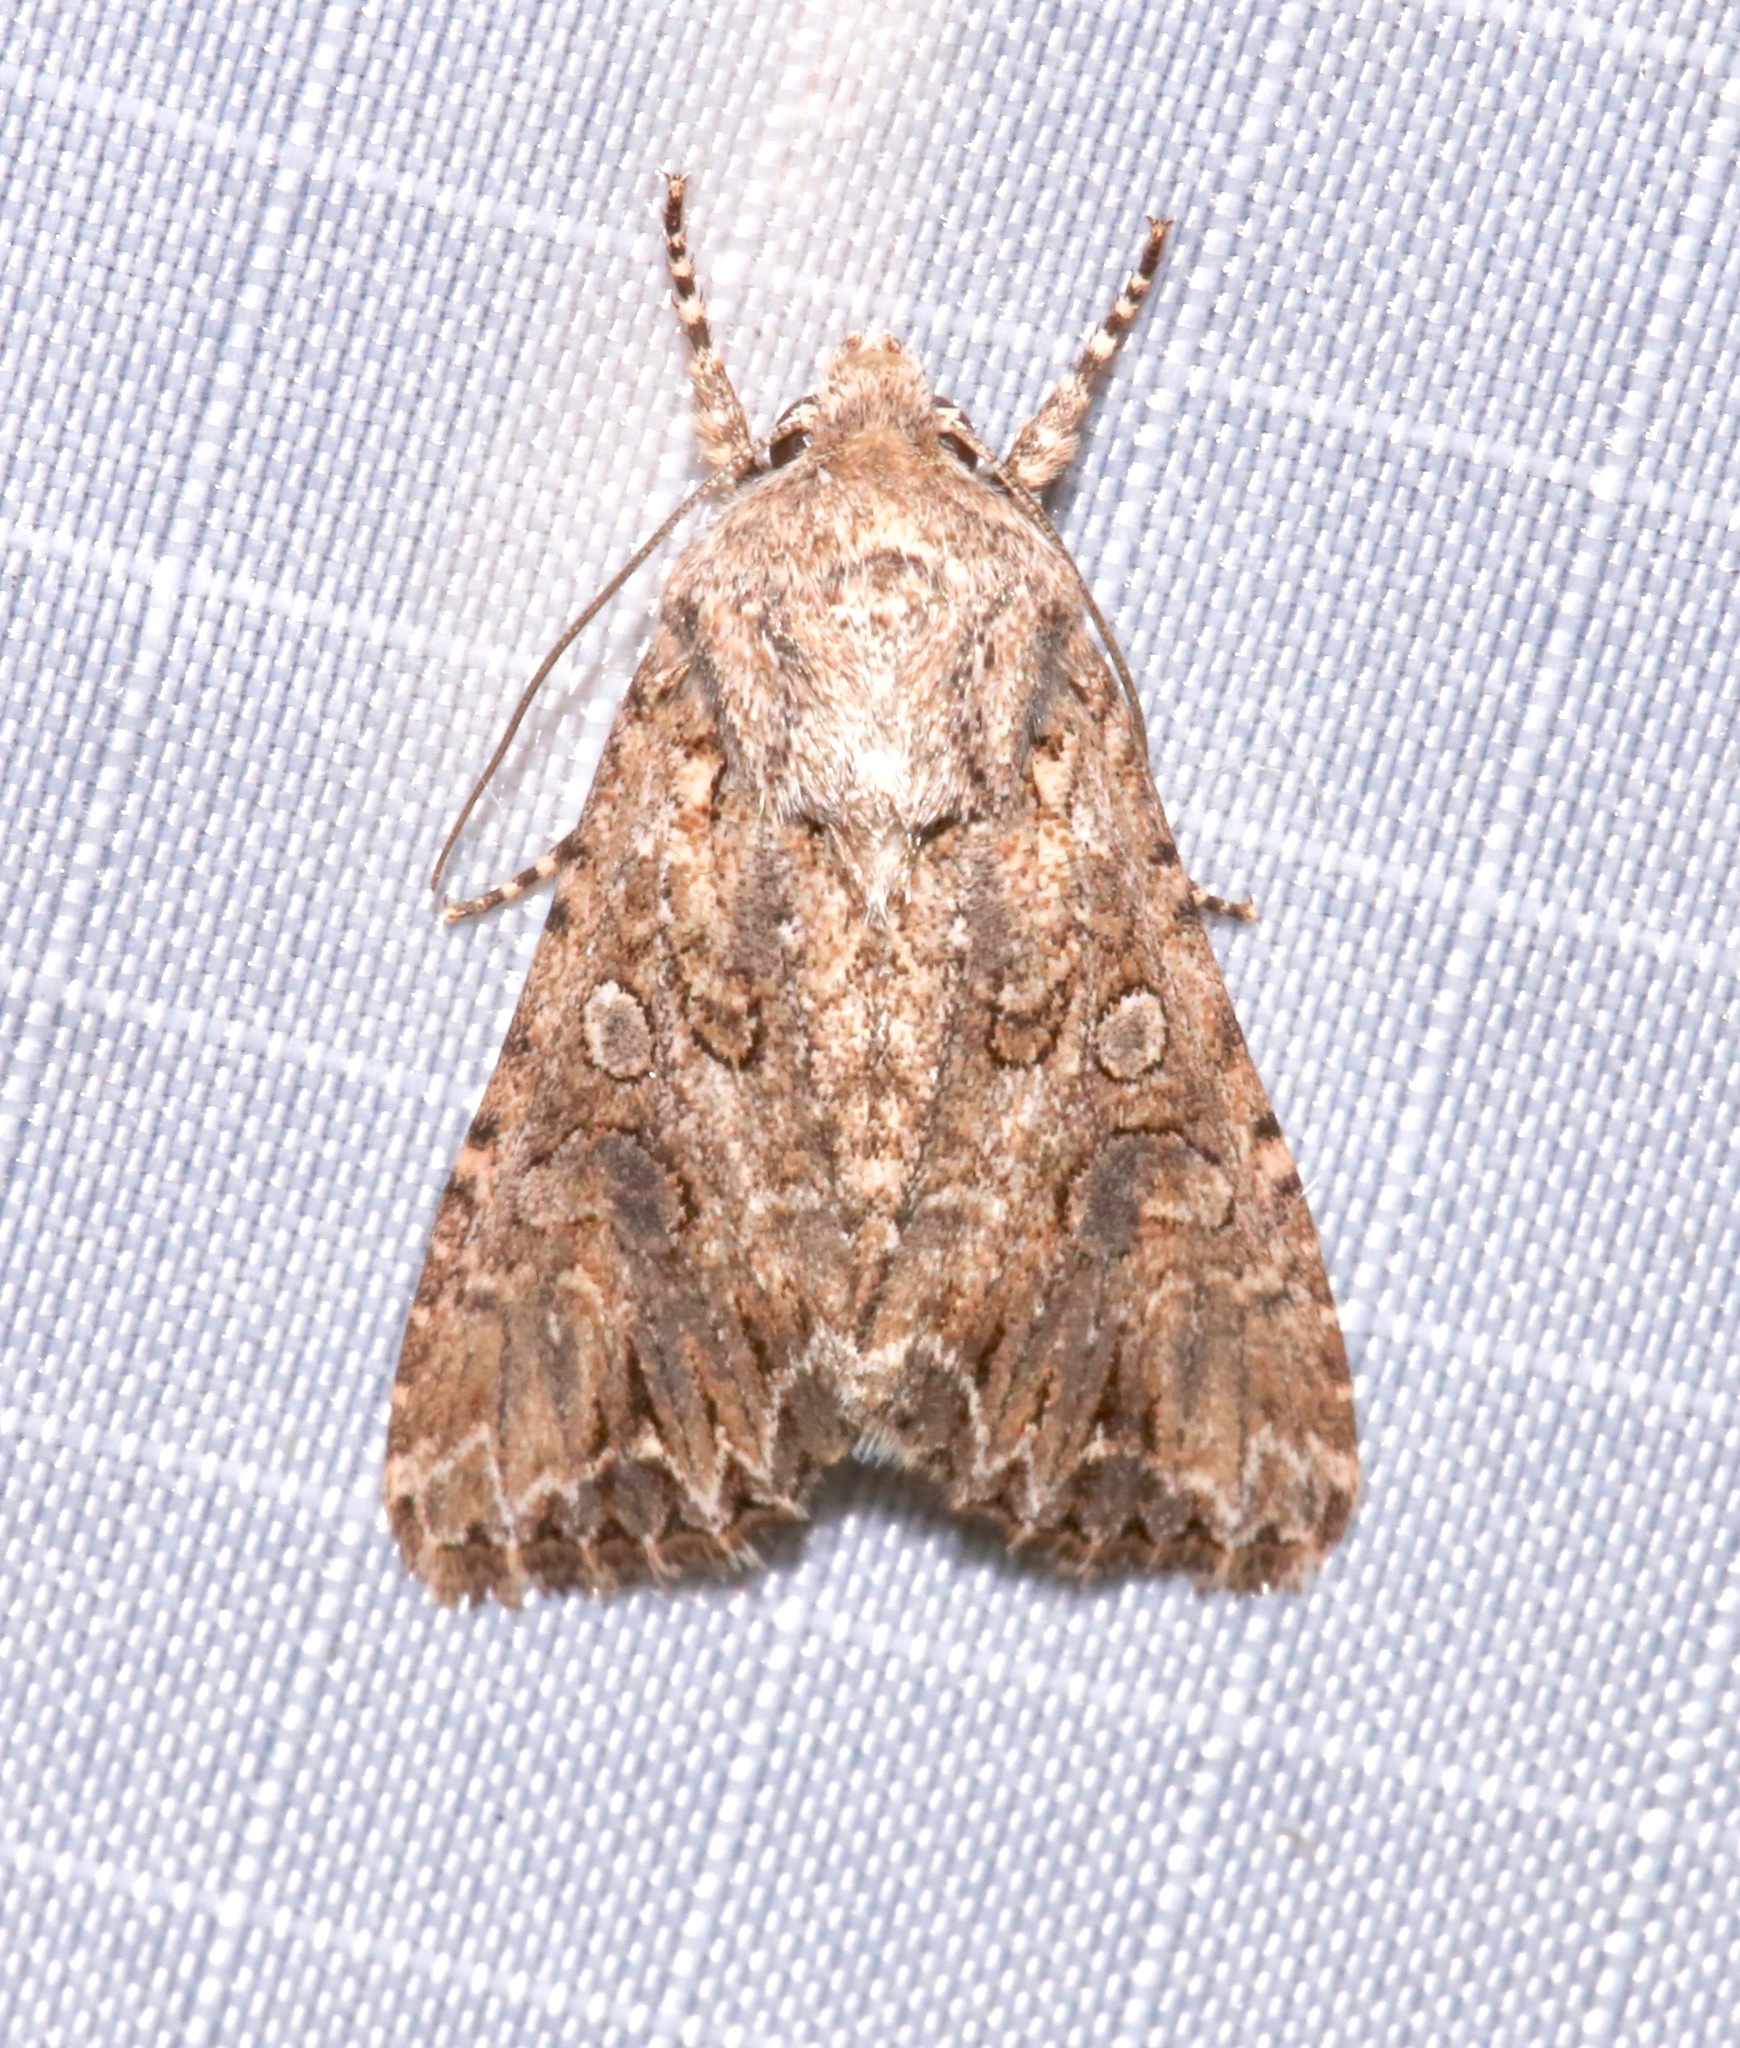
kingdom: Animalia
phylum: Arthropoda
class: Insecta
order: Lepidoptera
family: Noctuidae
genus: Anarta
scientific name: Anarta trifolii
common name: Clover cutworm moth
